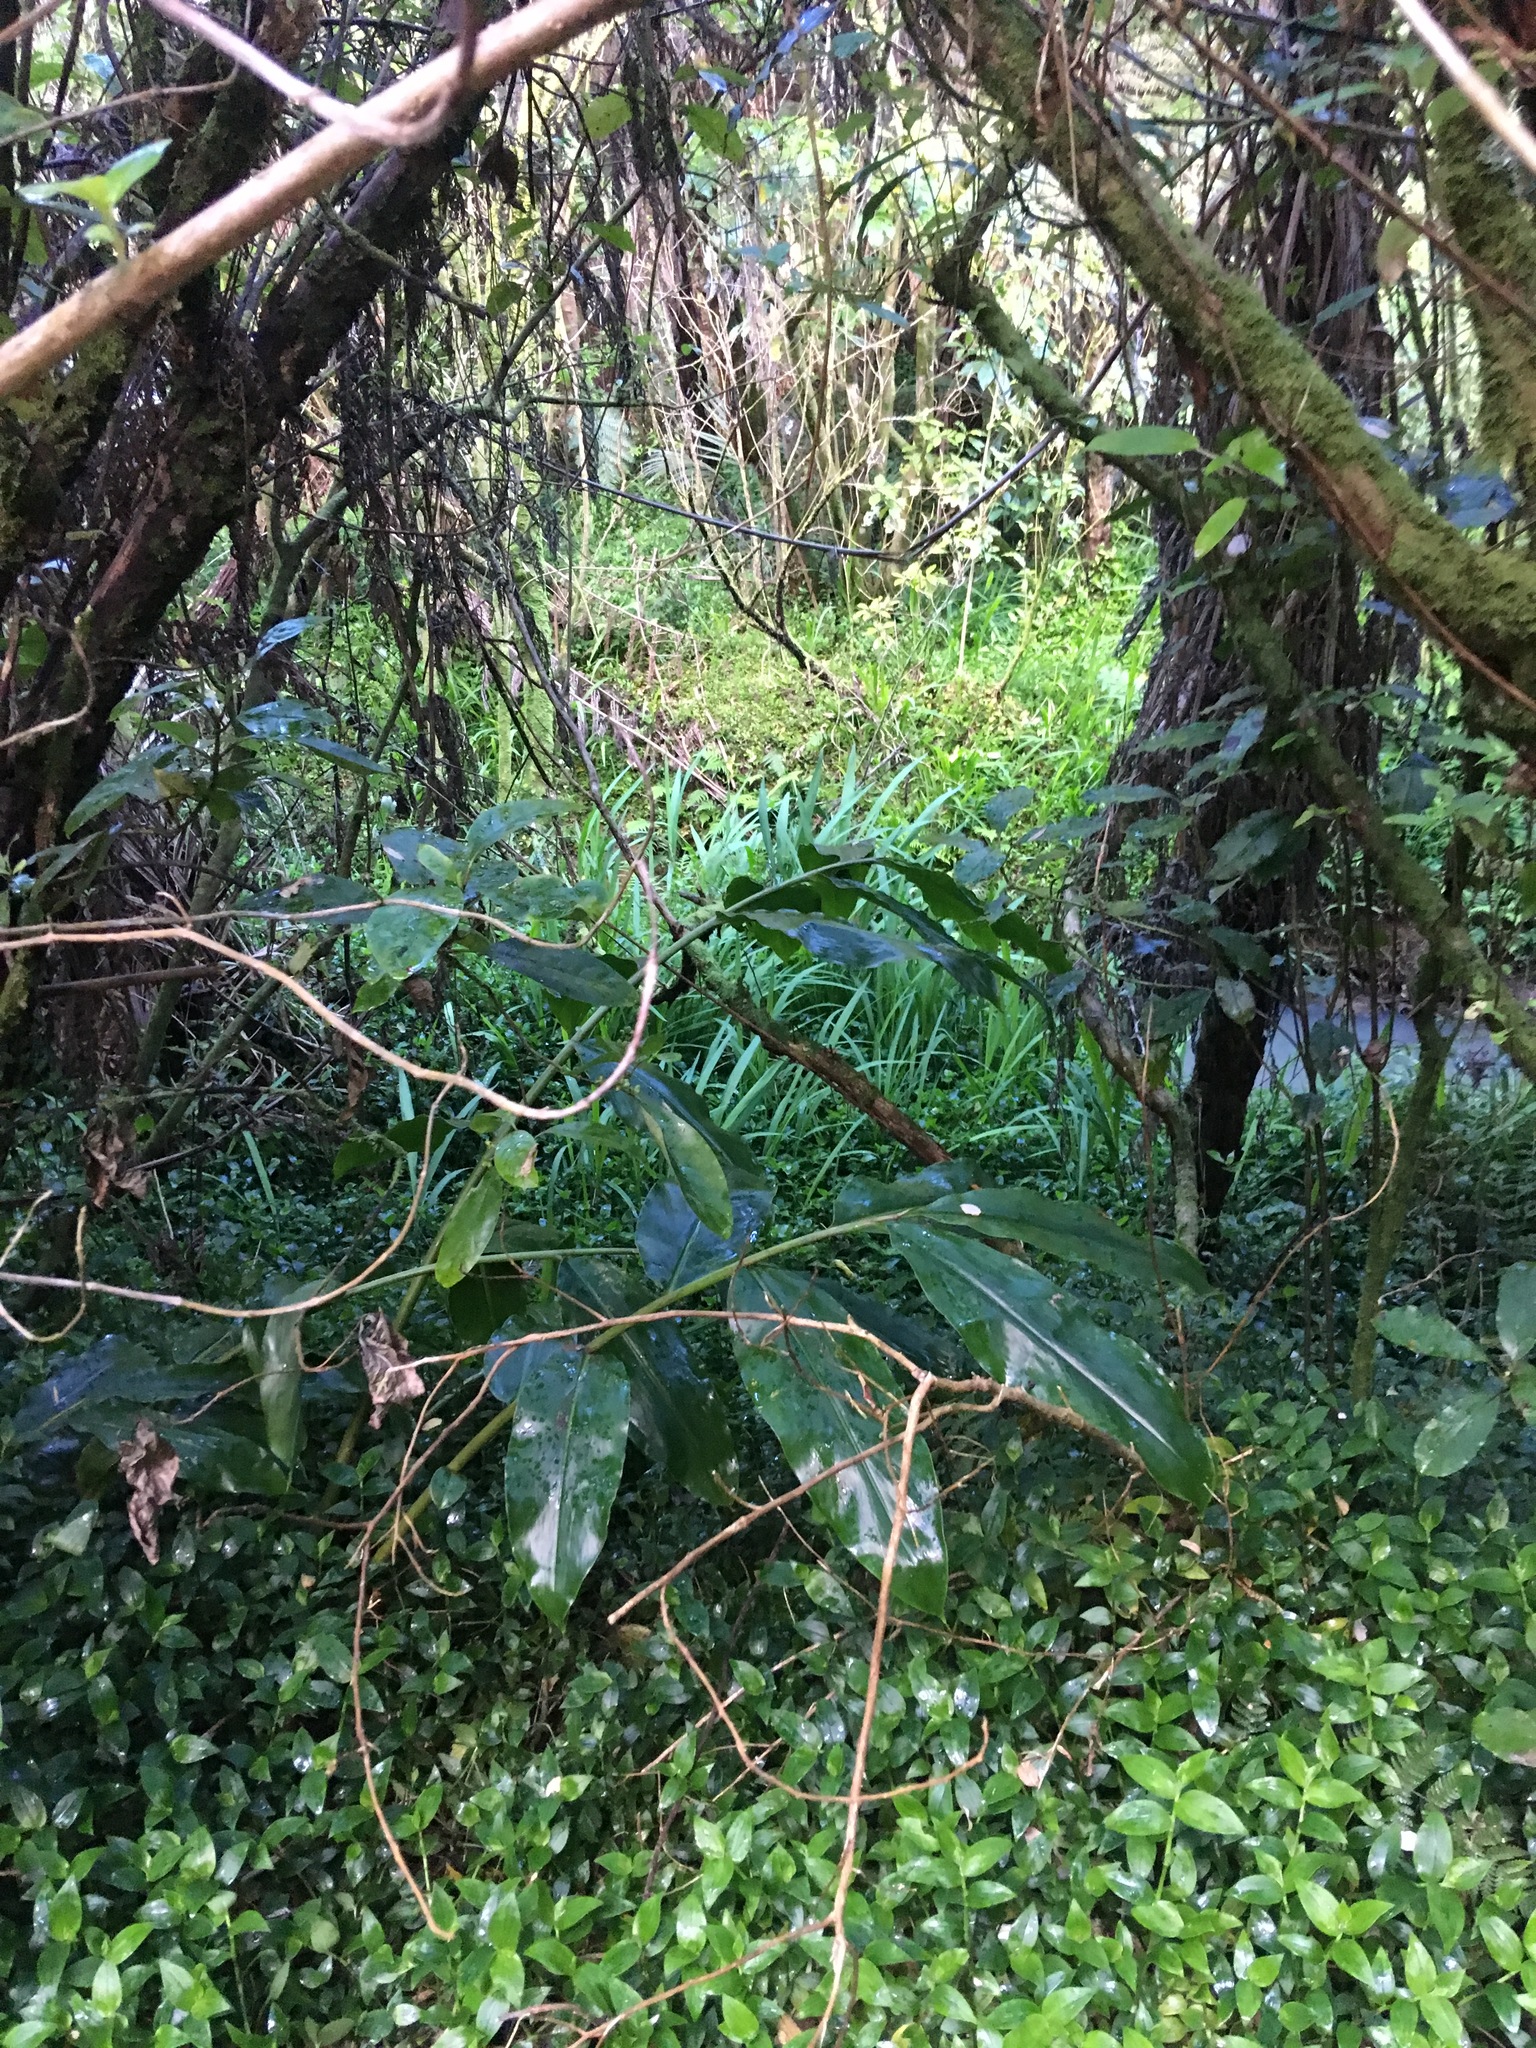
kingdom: Plantae
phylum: Tracheophyta
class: Liliopsida
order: Zingiberales
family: Zingiberaceae
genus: Hedychium
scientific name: Hedychium gardnerianum
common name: Himalayan ginger
